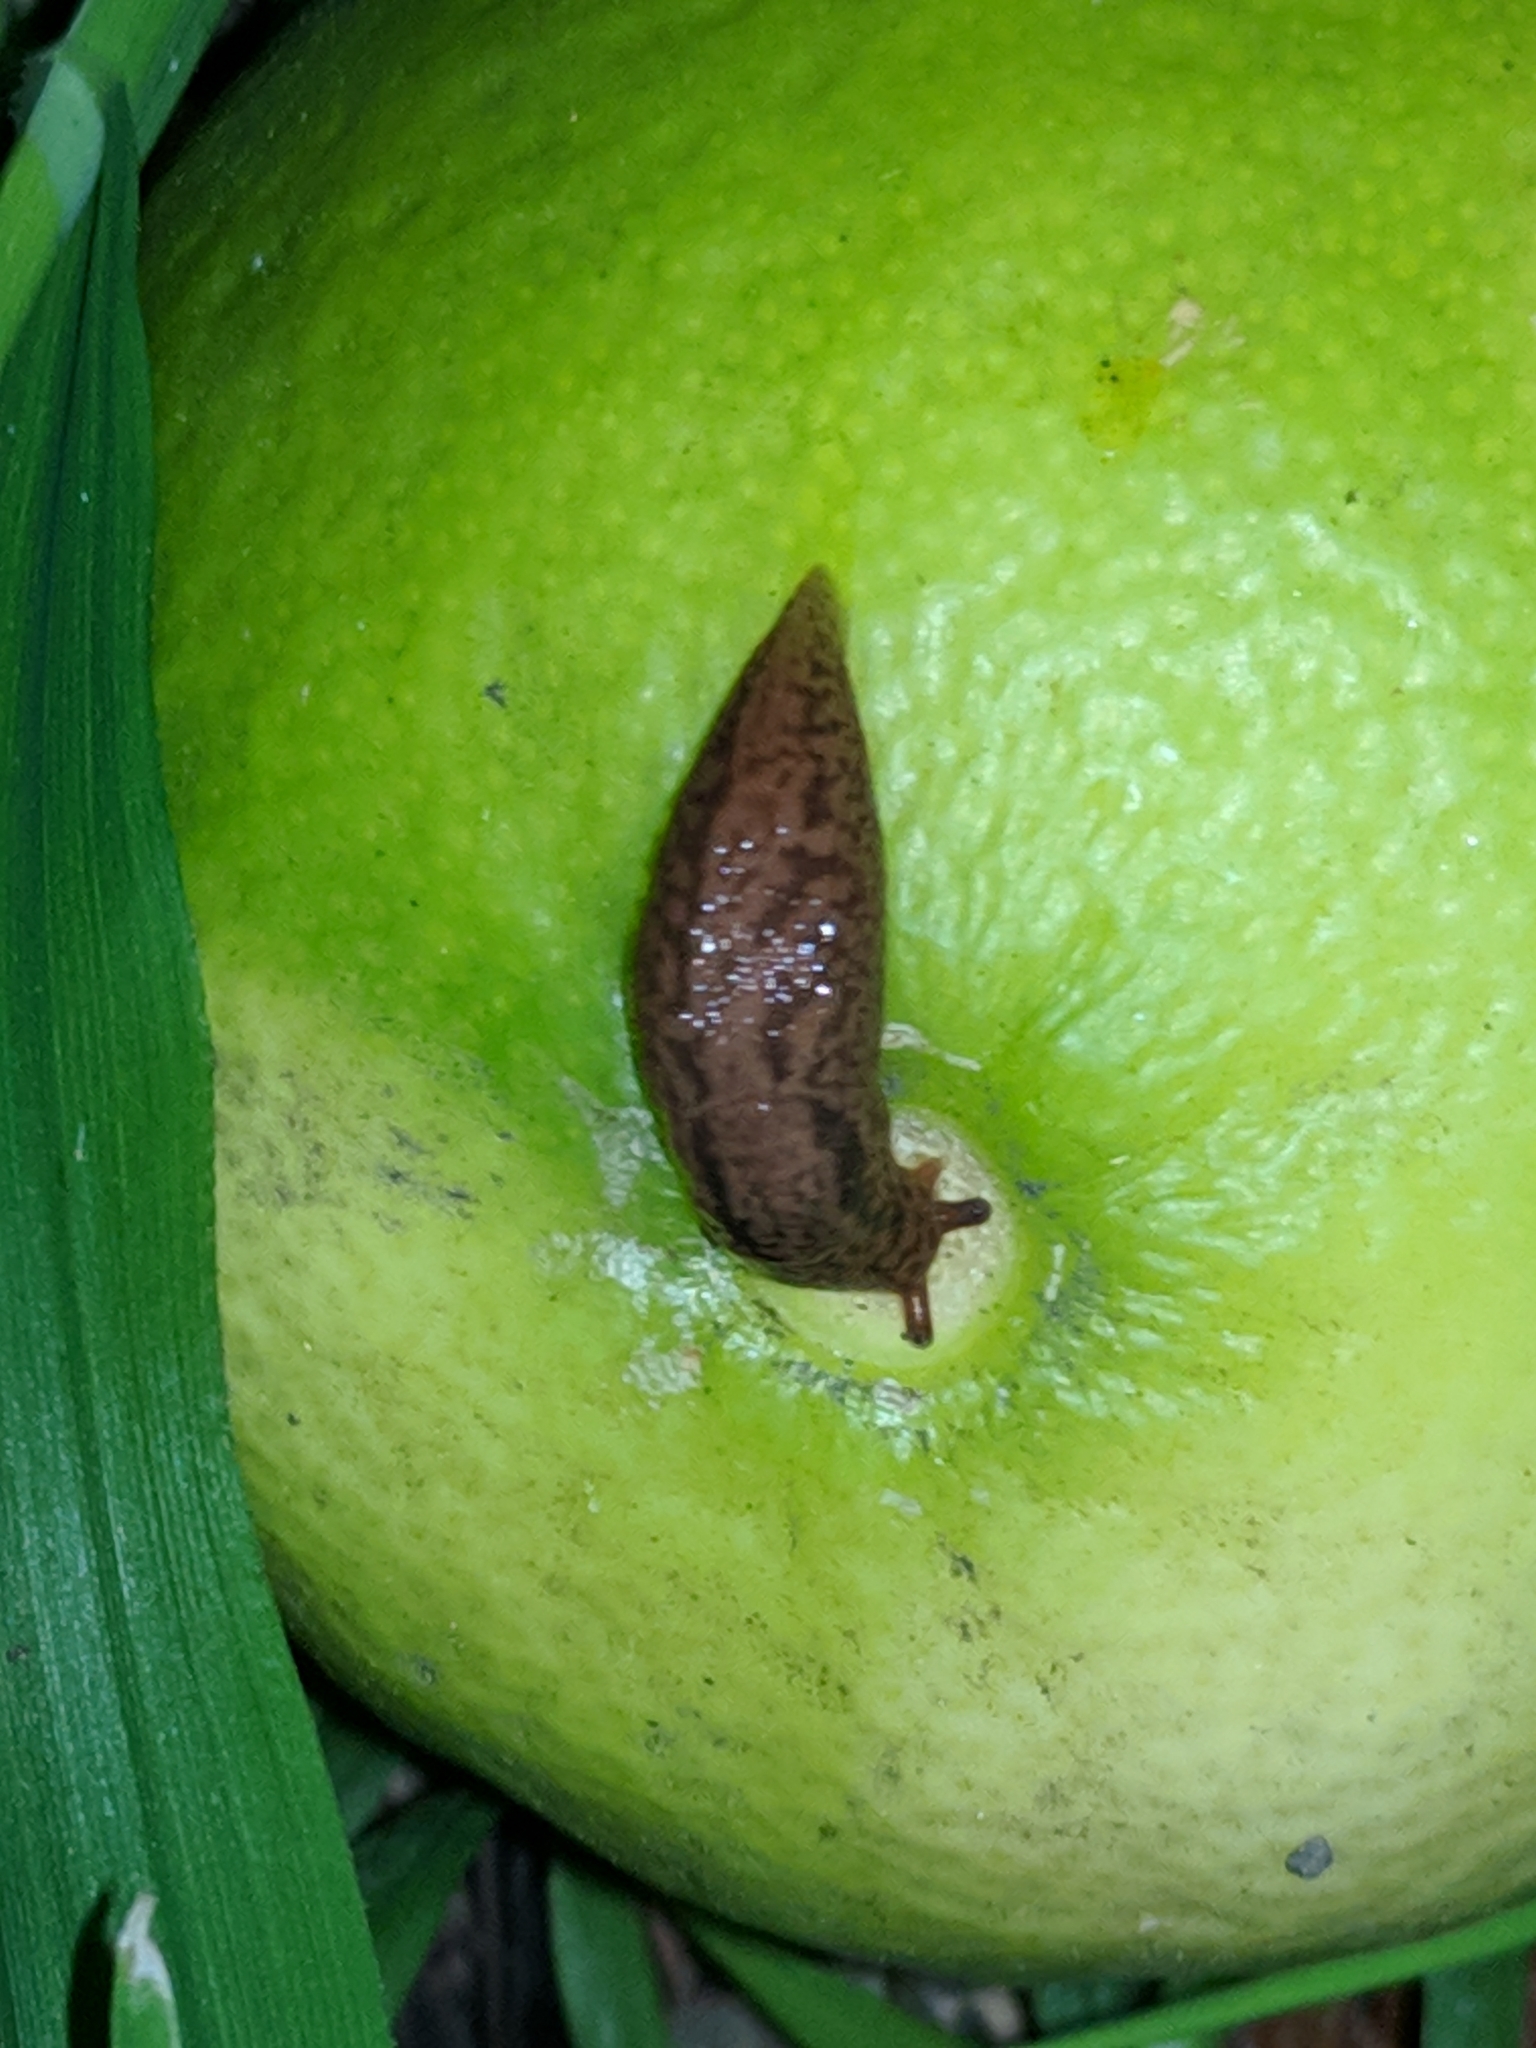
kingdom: Animalia
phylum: Mollusca
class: Gastropoda
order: Stylommatophora
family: Limacidae
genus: Ambigolimax
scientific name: Ambigolimax
